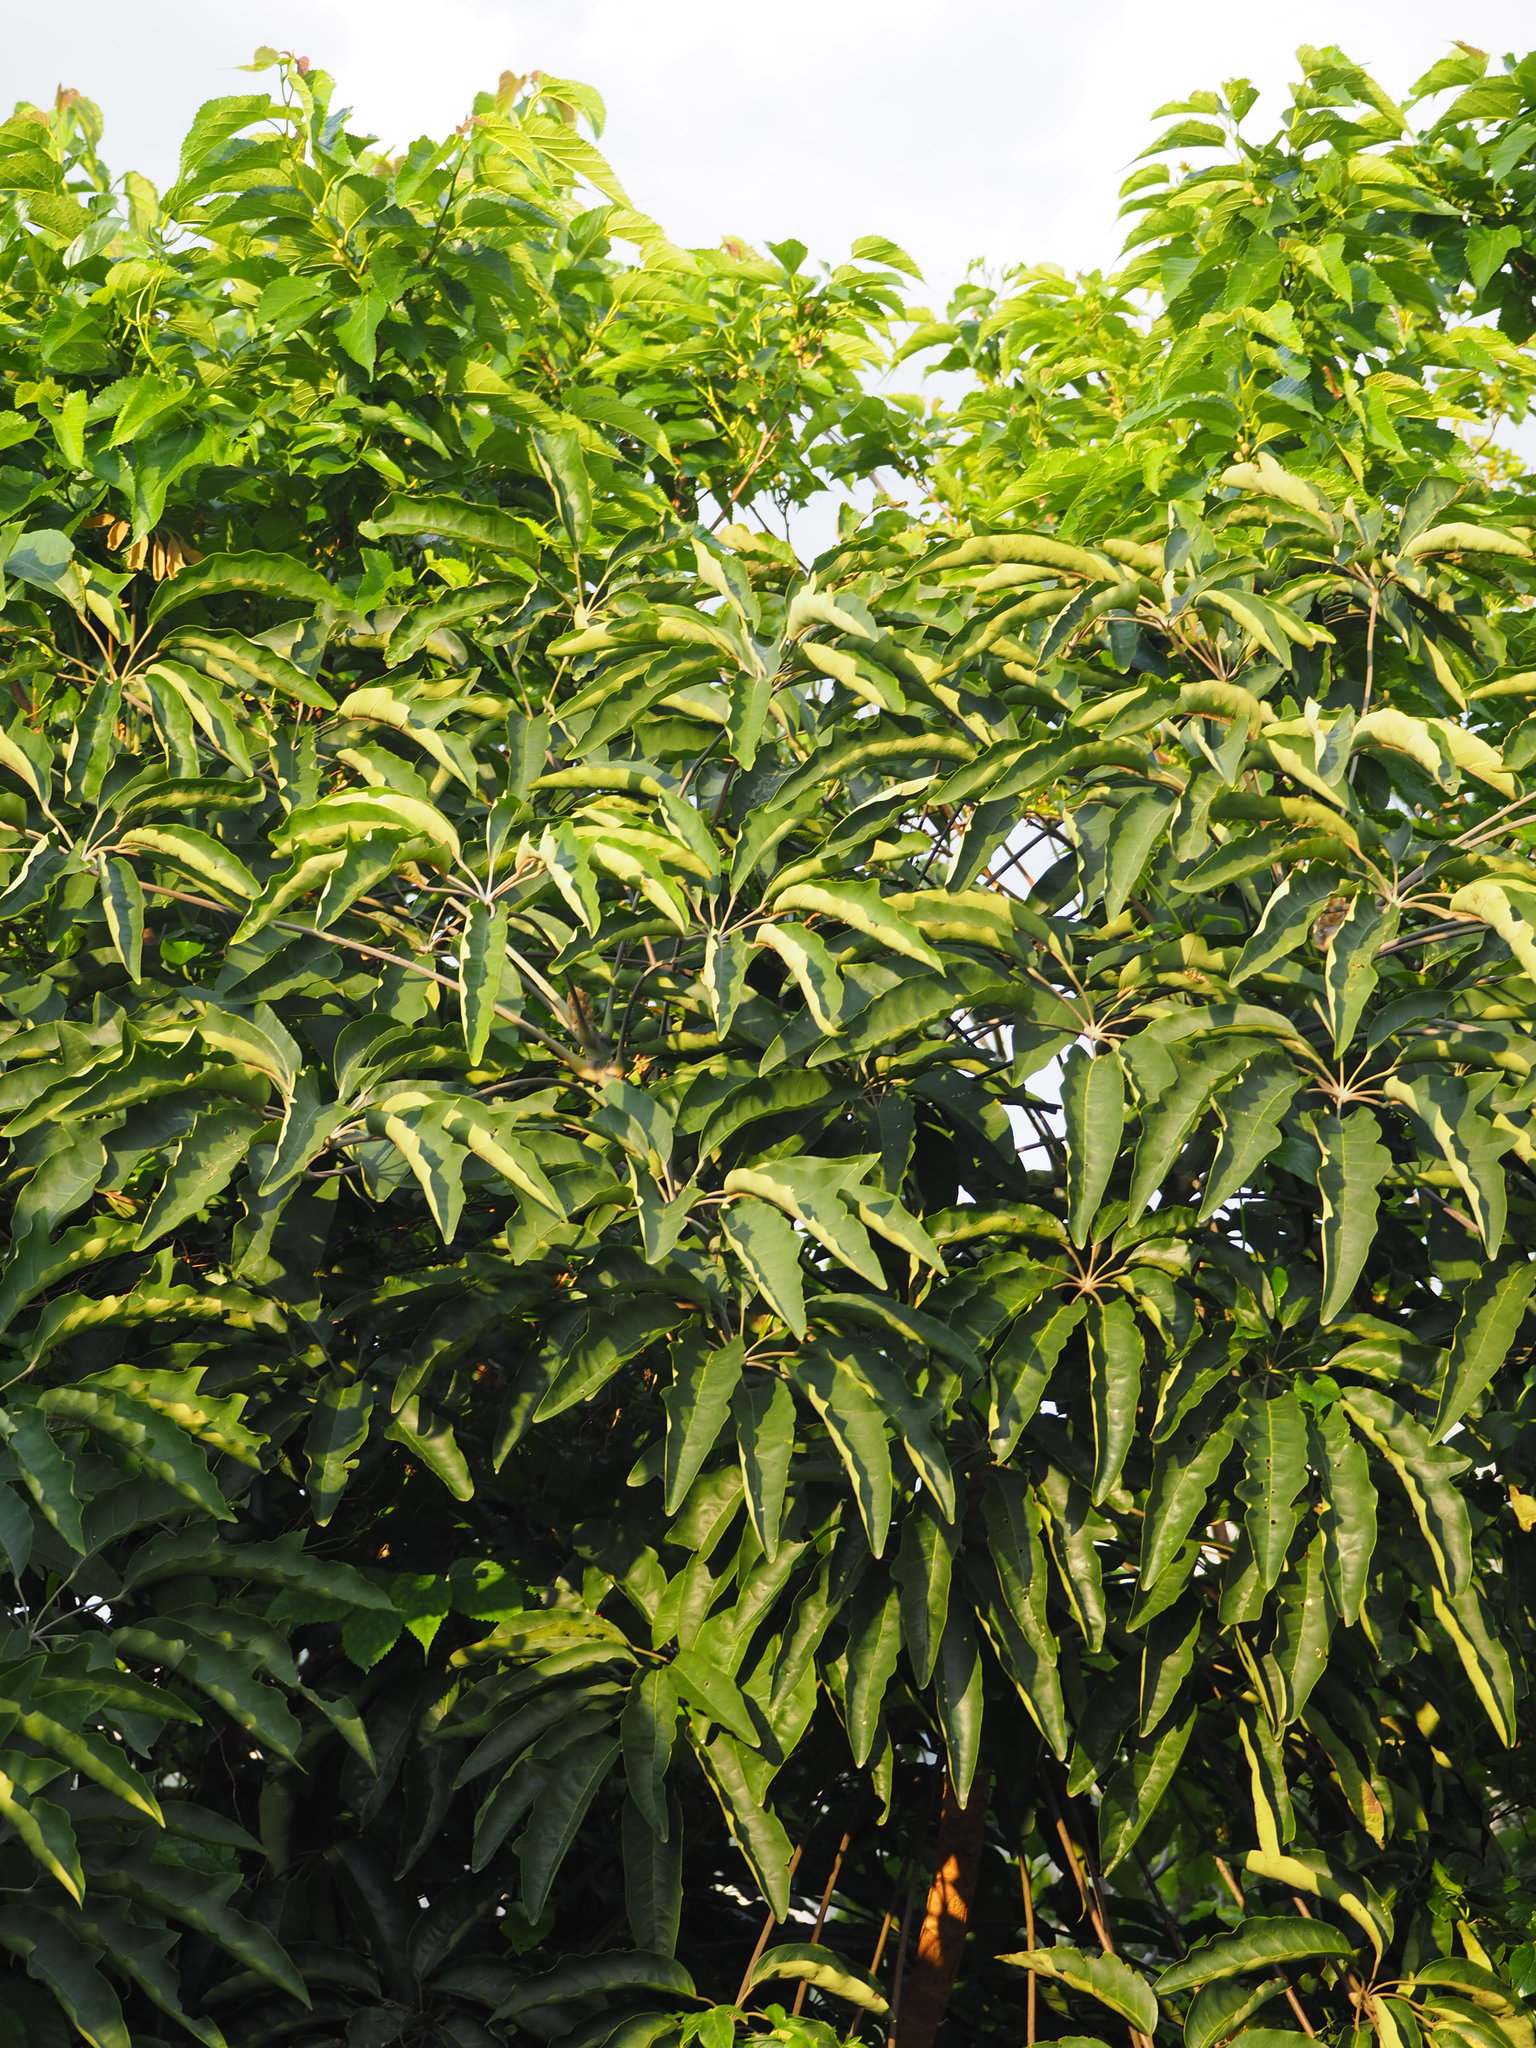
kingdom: Plantae
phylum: Tracheophyta
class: Magnoliopsida
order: Apiales
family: Araliaceae
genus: Heptapleurum
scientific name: Heptapleurum heptaphyllum
